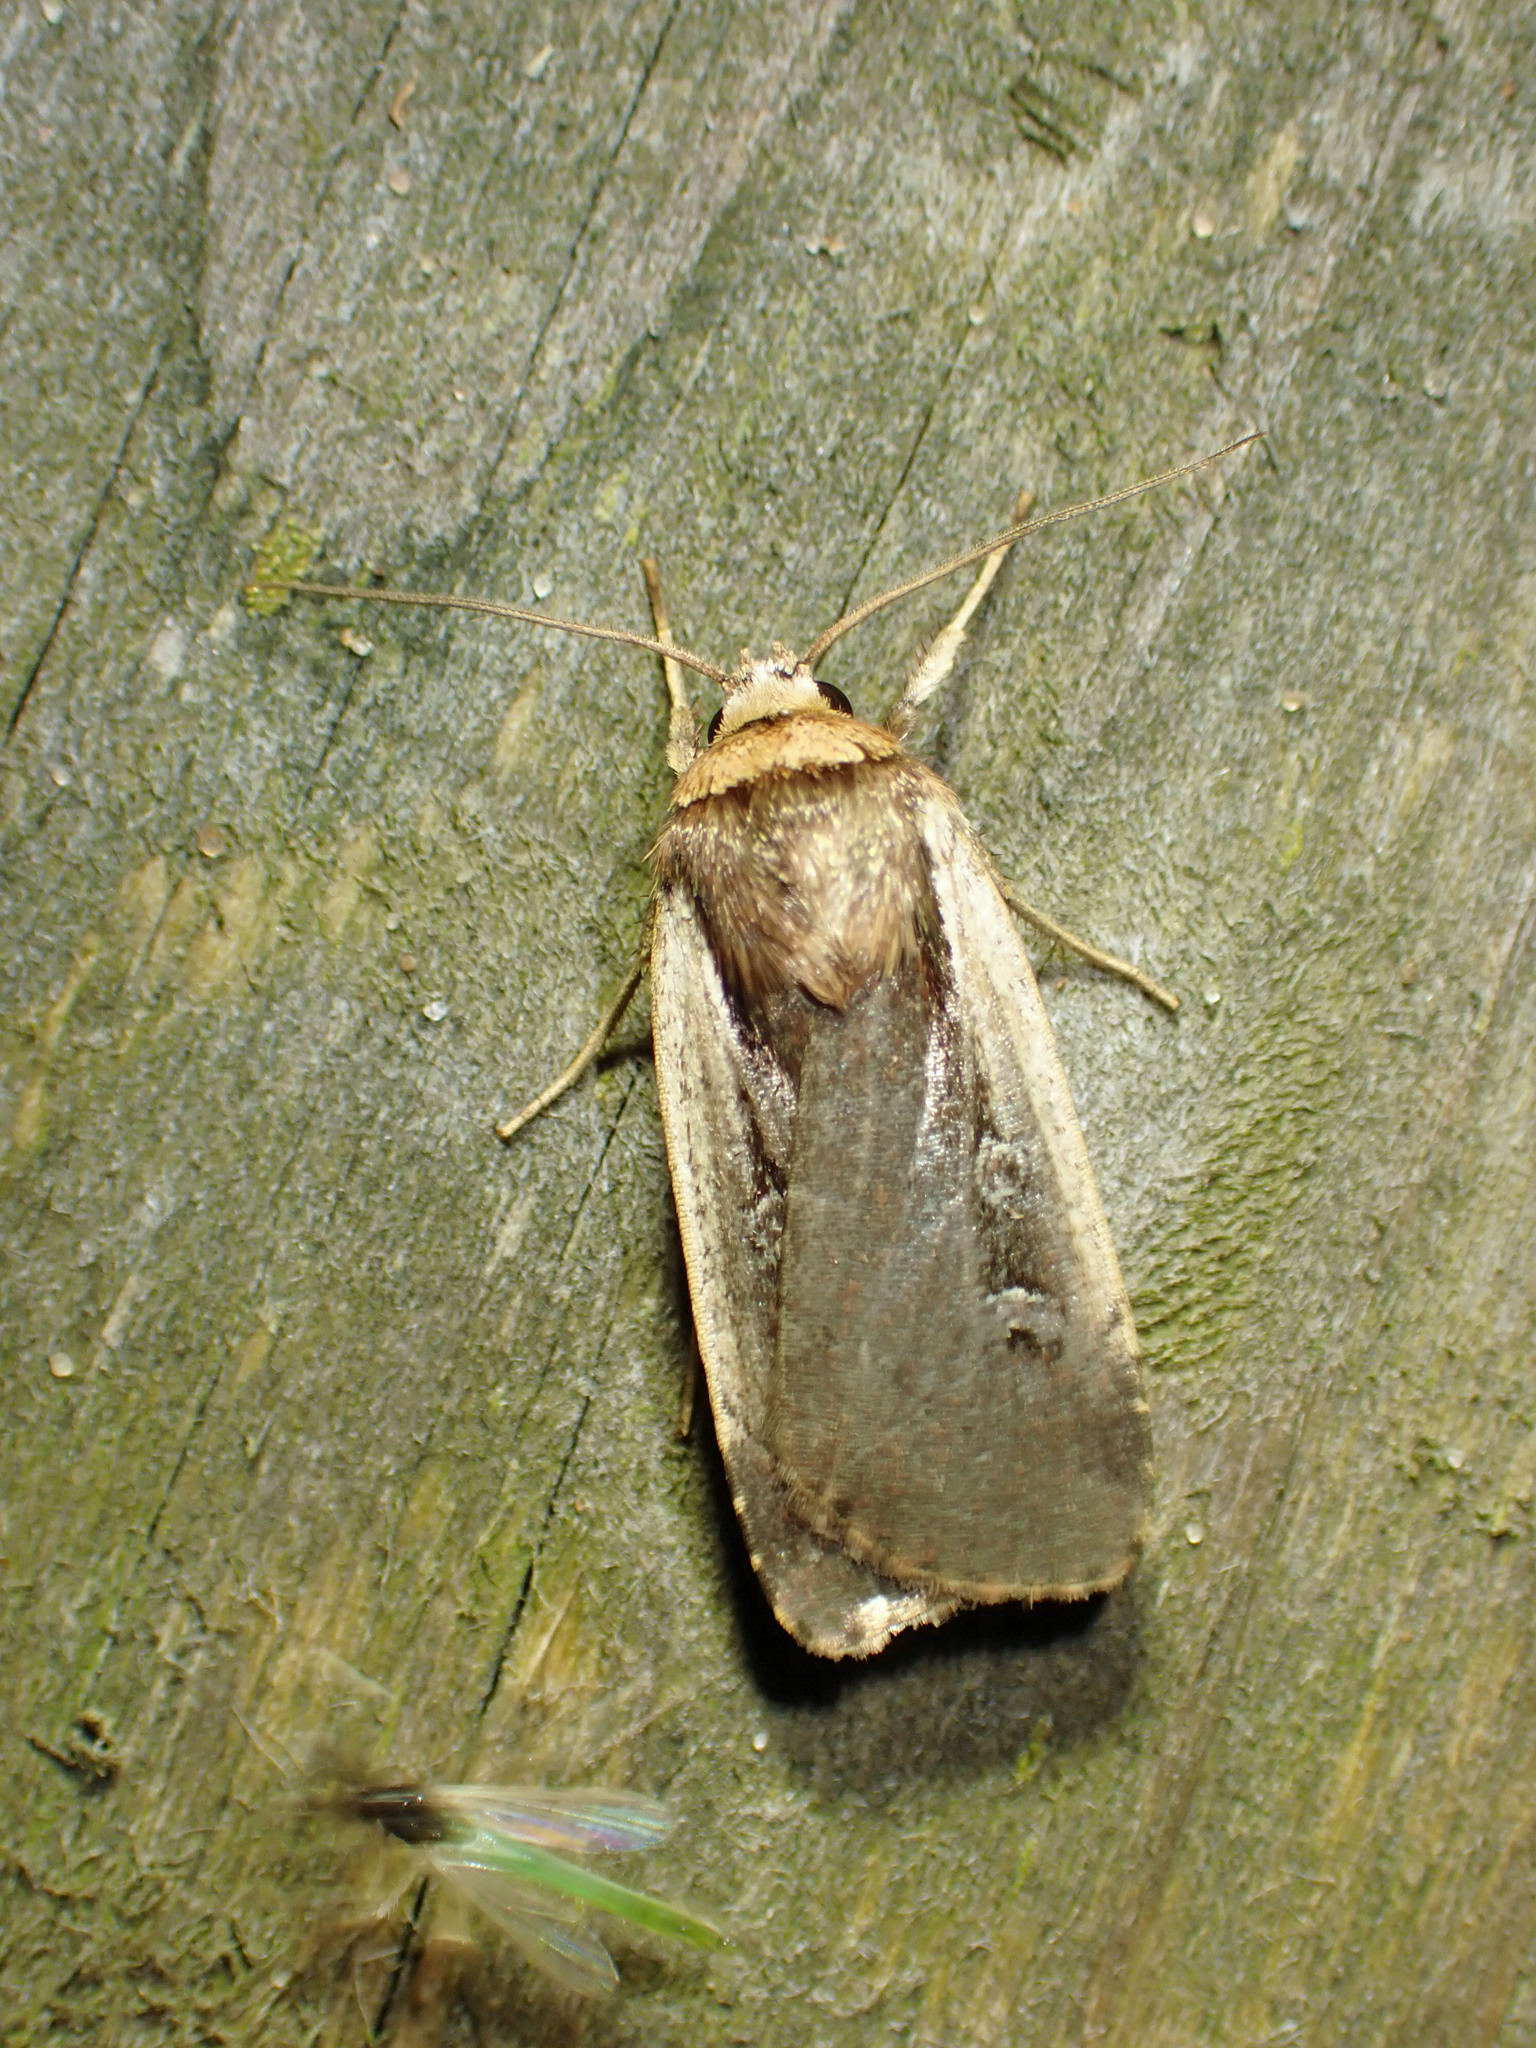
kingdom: Animalia
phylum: Arthropoda
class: Insecta
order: Lepidoptera
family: Noctuidae
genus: Ochropleura
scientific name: Ochropleura implecta
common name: Flame-shouldered dart
